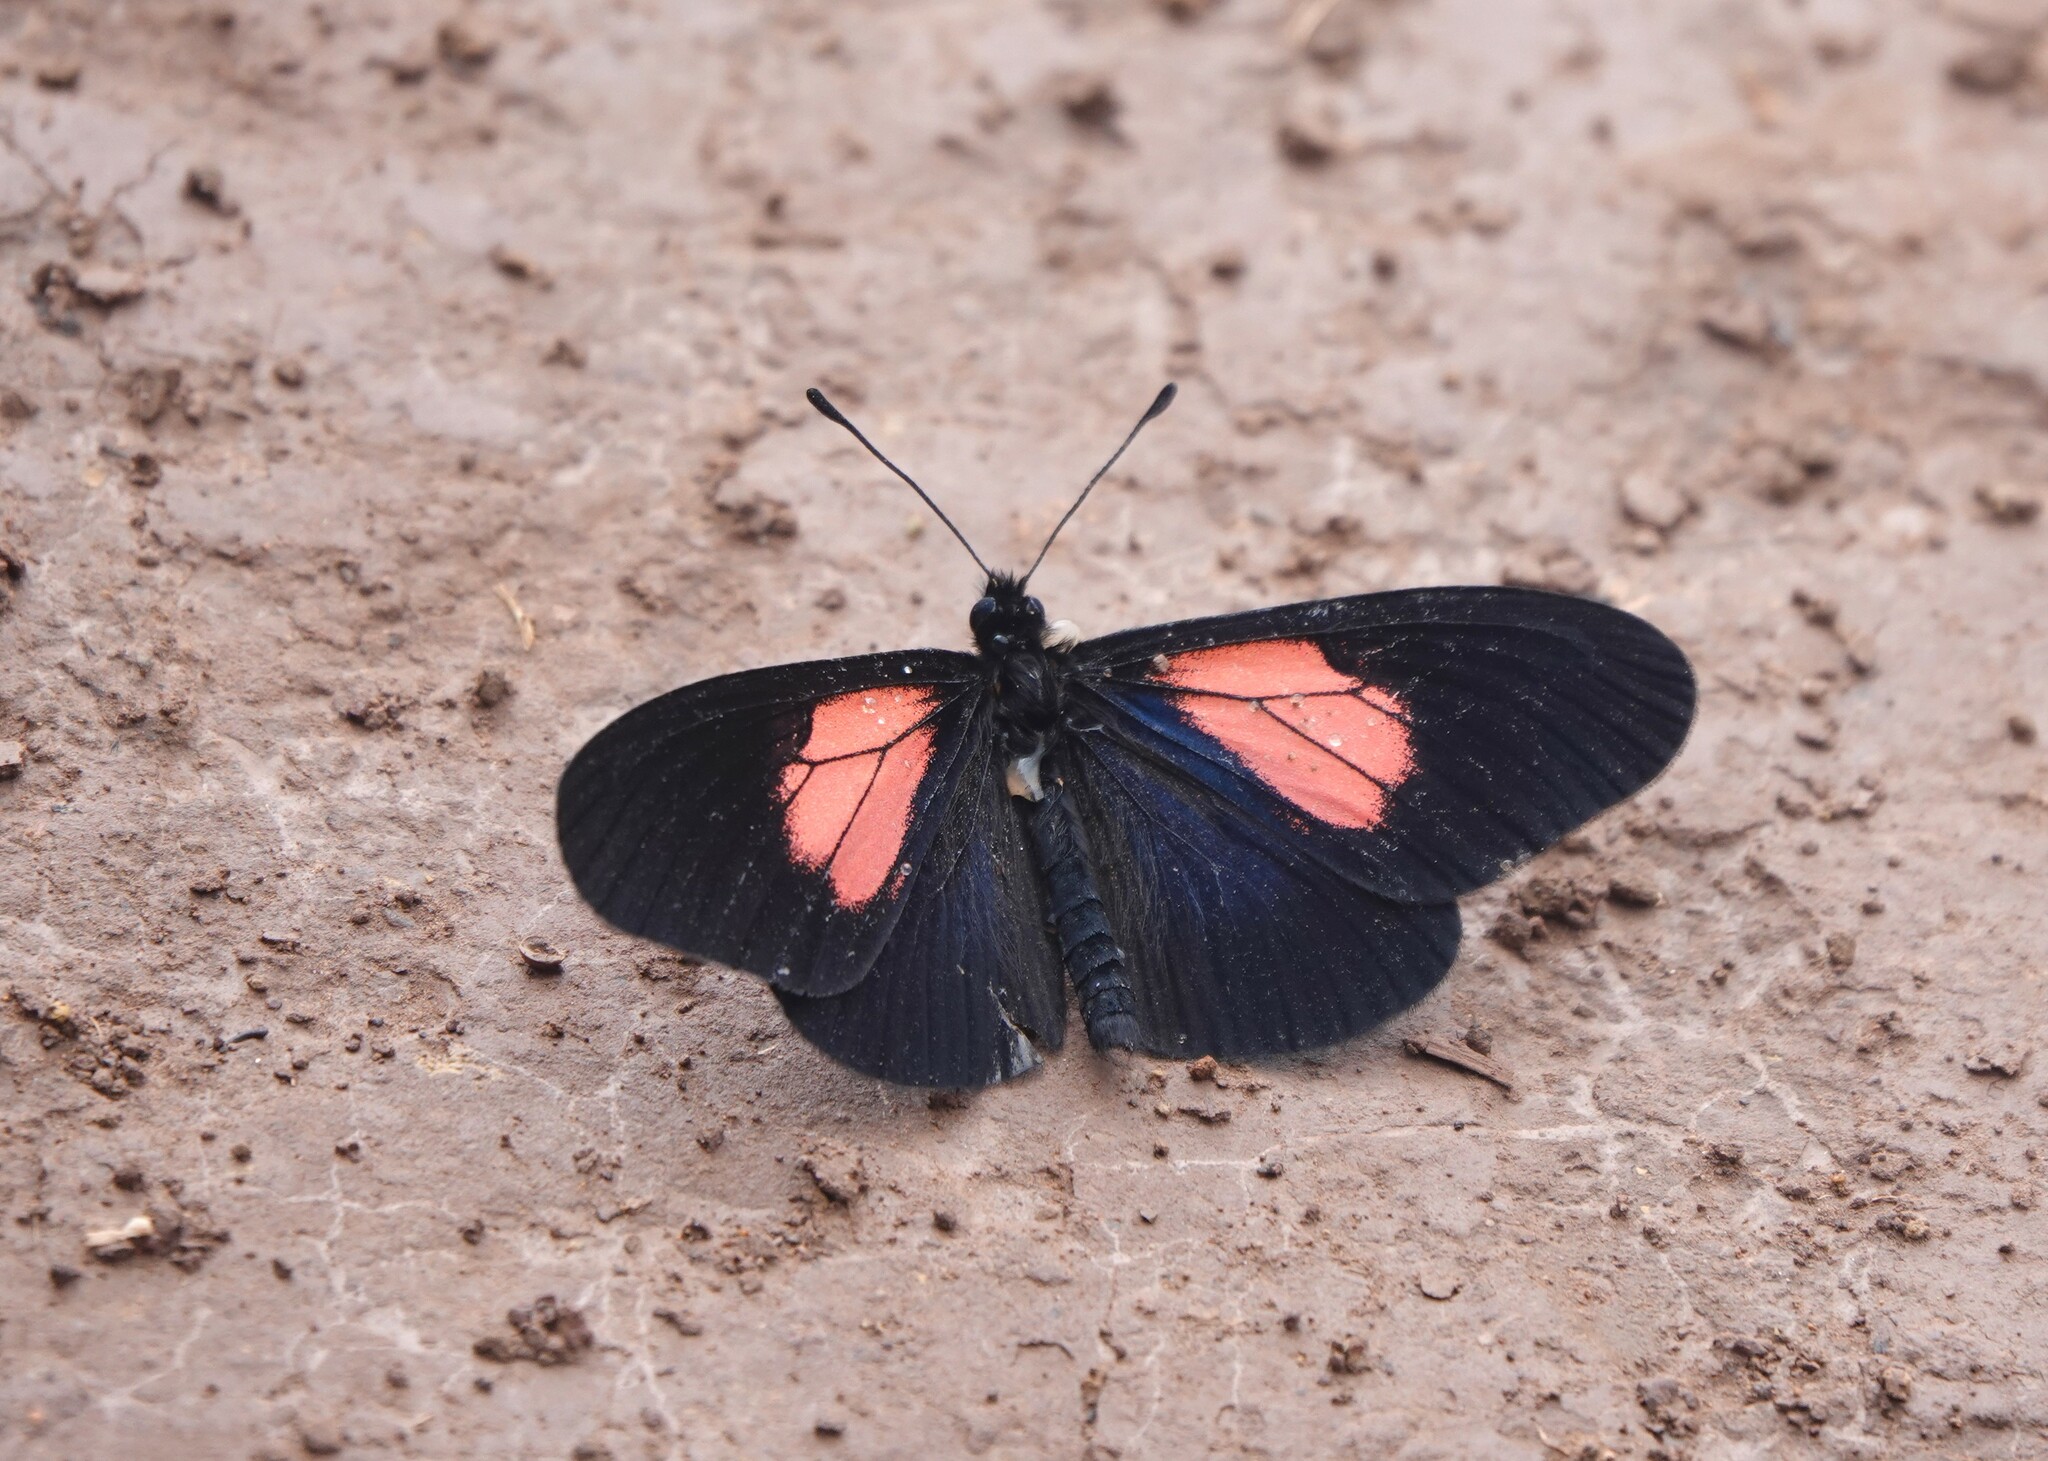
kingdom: Animalia
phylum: Arthropoda
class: Insecta
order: Lepidoptera
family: Nymphalidae
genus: Acraea
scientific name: Acraea Altinote ozomene
